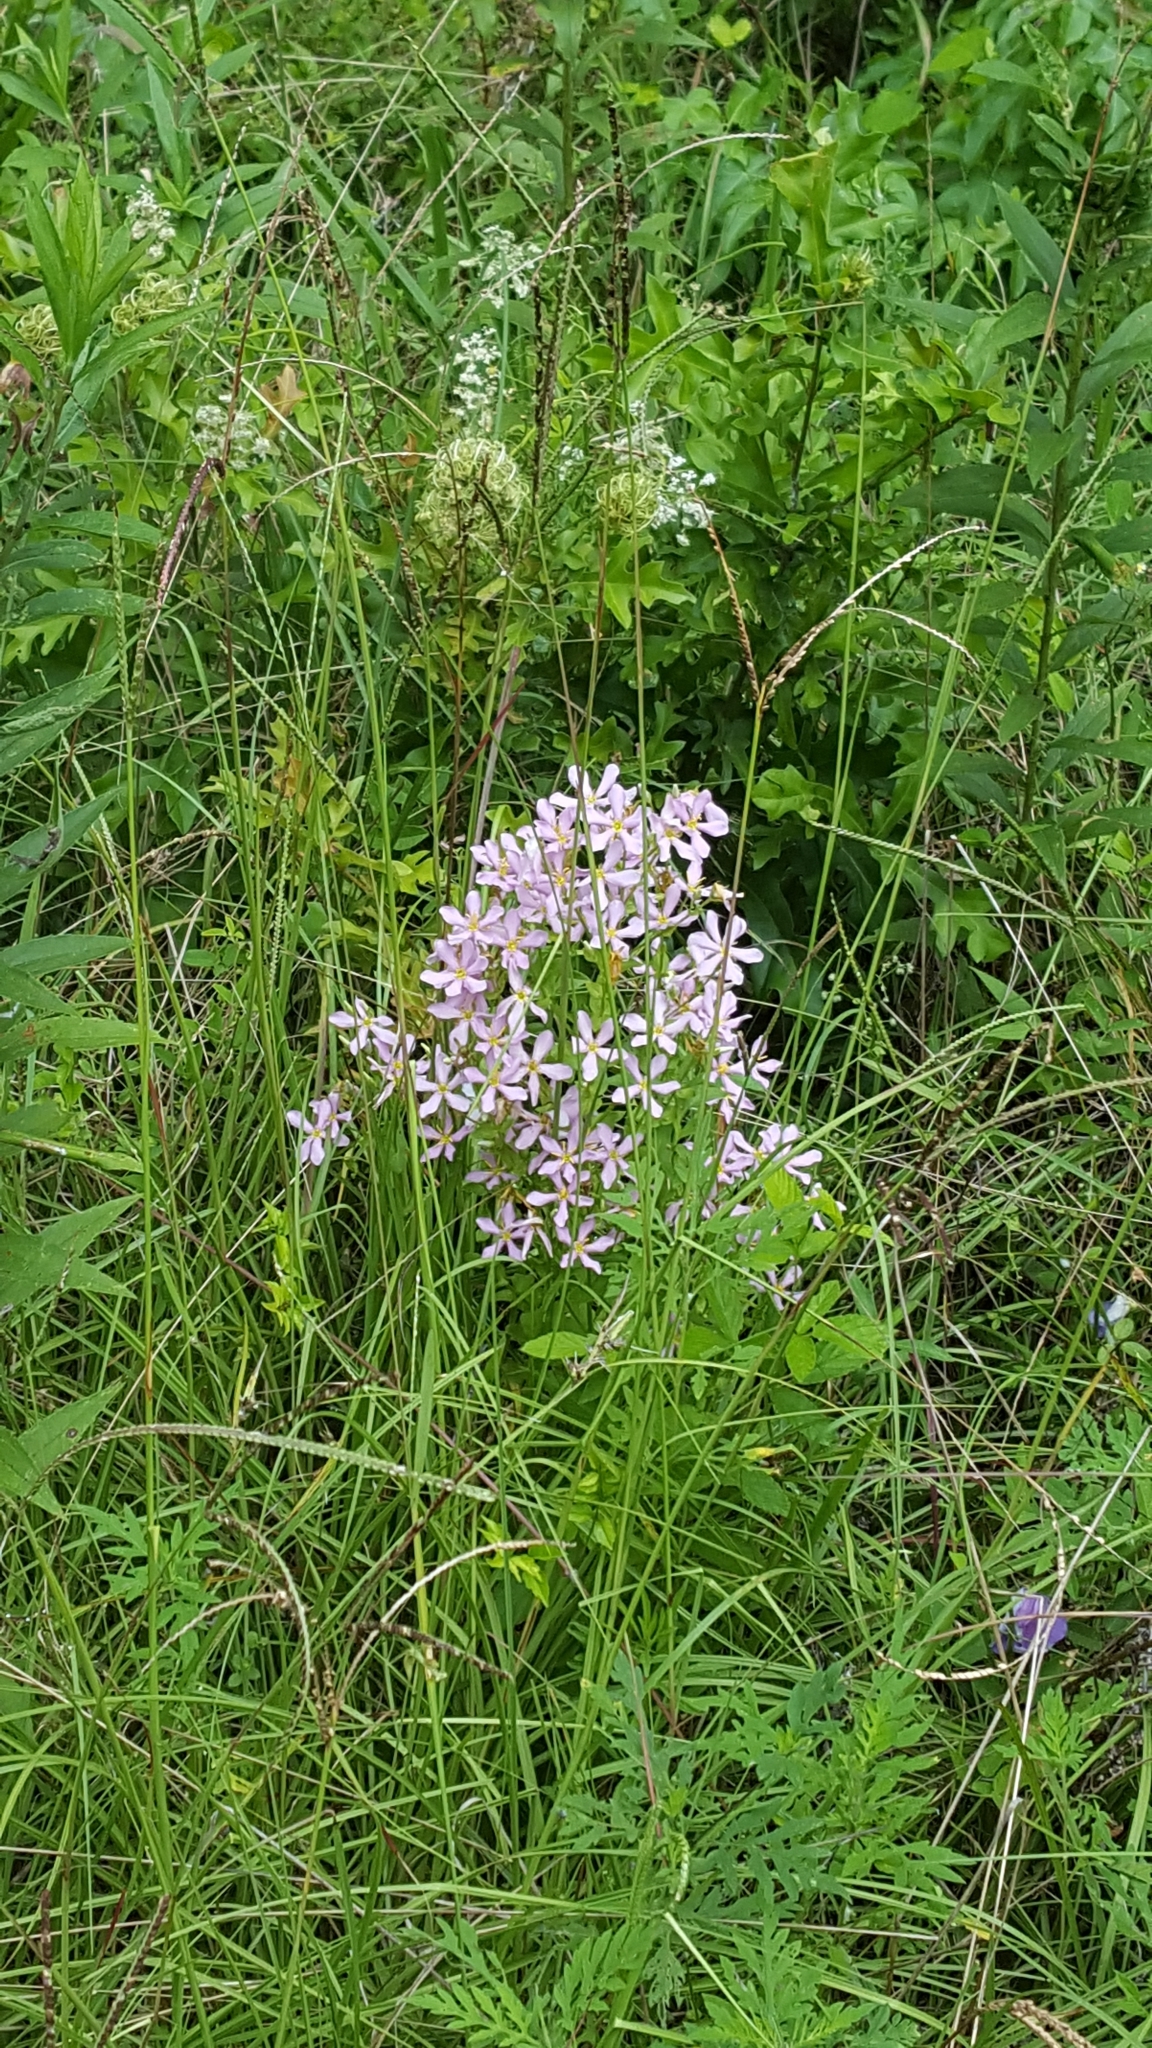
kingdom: Plantae
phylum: Tracheophyta
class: Magnoliopsida
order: Gentianales
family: Gentianaceae
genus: Sabatia
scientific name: Sabatia angularis
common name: Rose-pink
